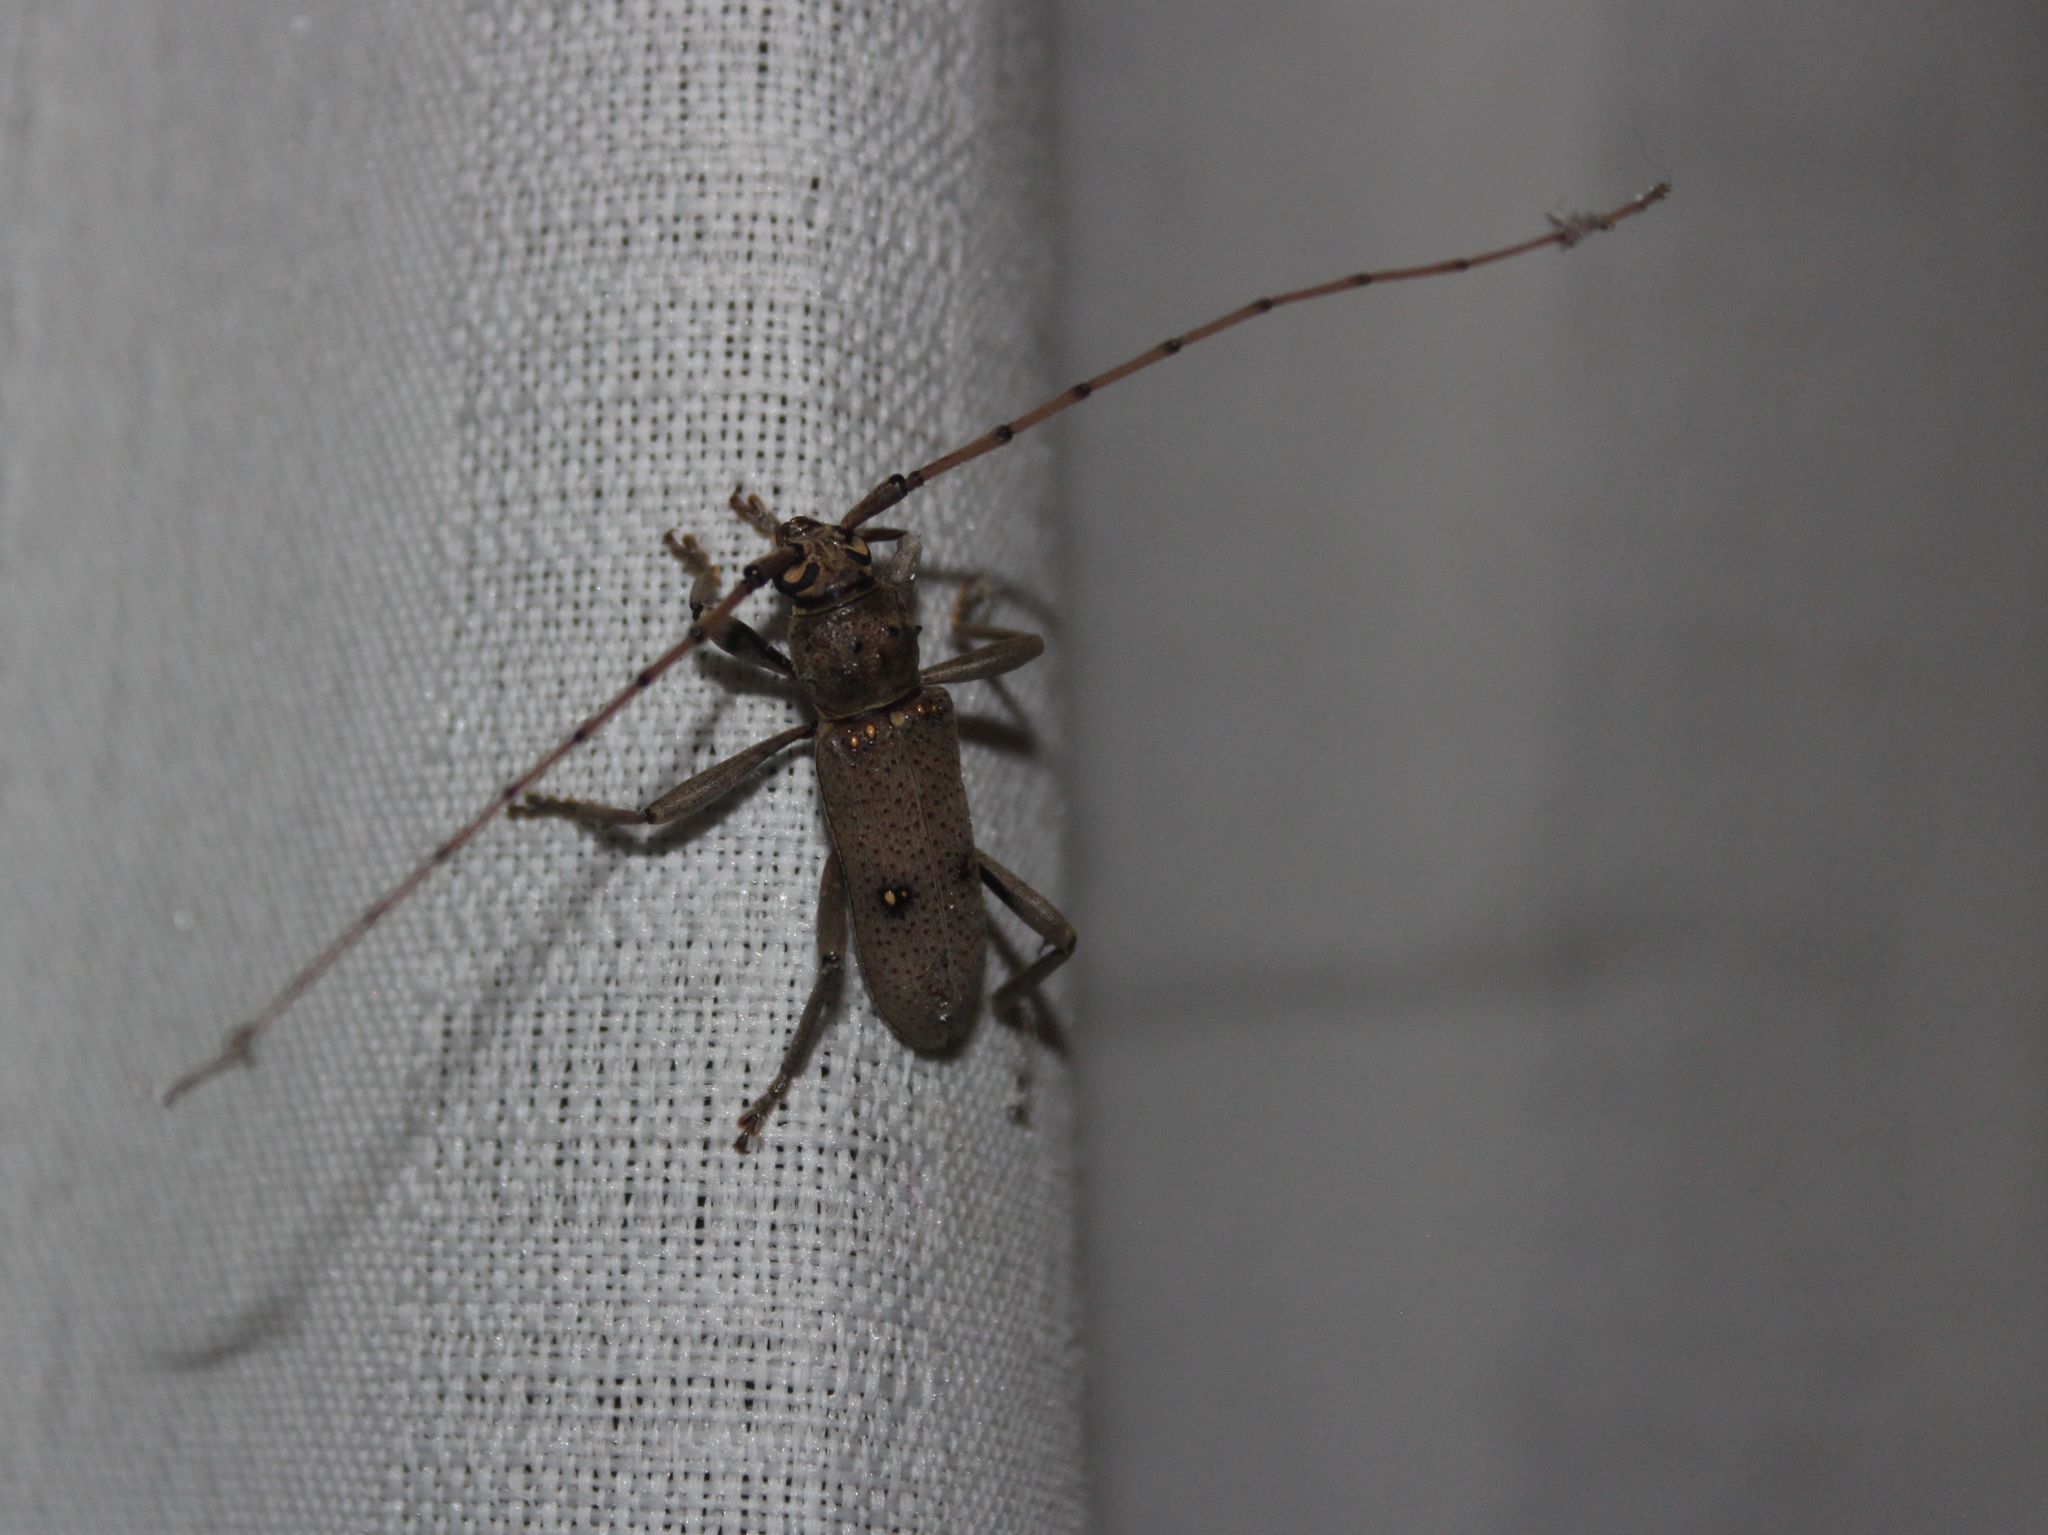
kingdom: Animalia
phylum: Arthropoda
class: Insecta
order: Coleoptera
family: Cerambycidae
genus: Eburia
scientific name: Eburia porulosa
